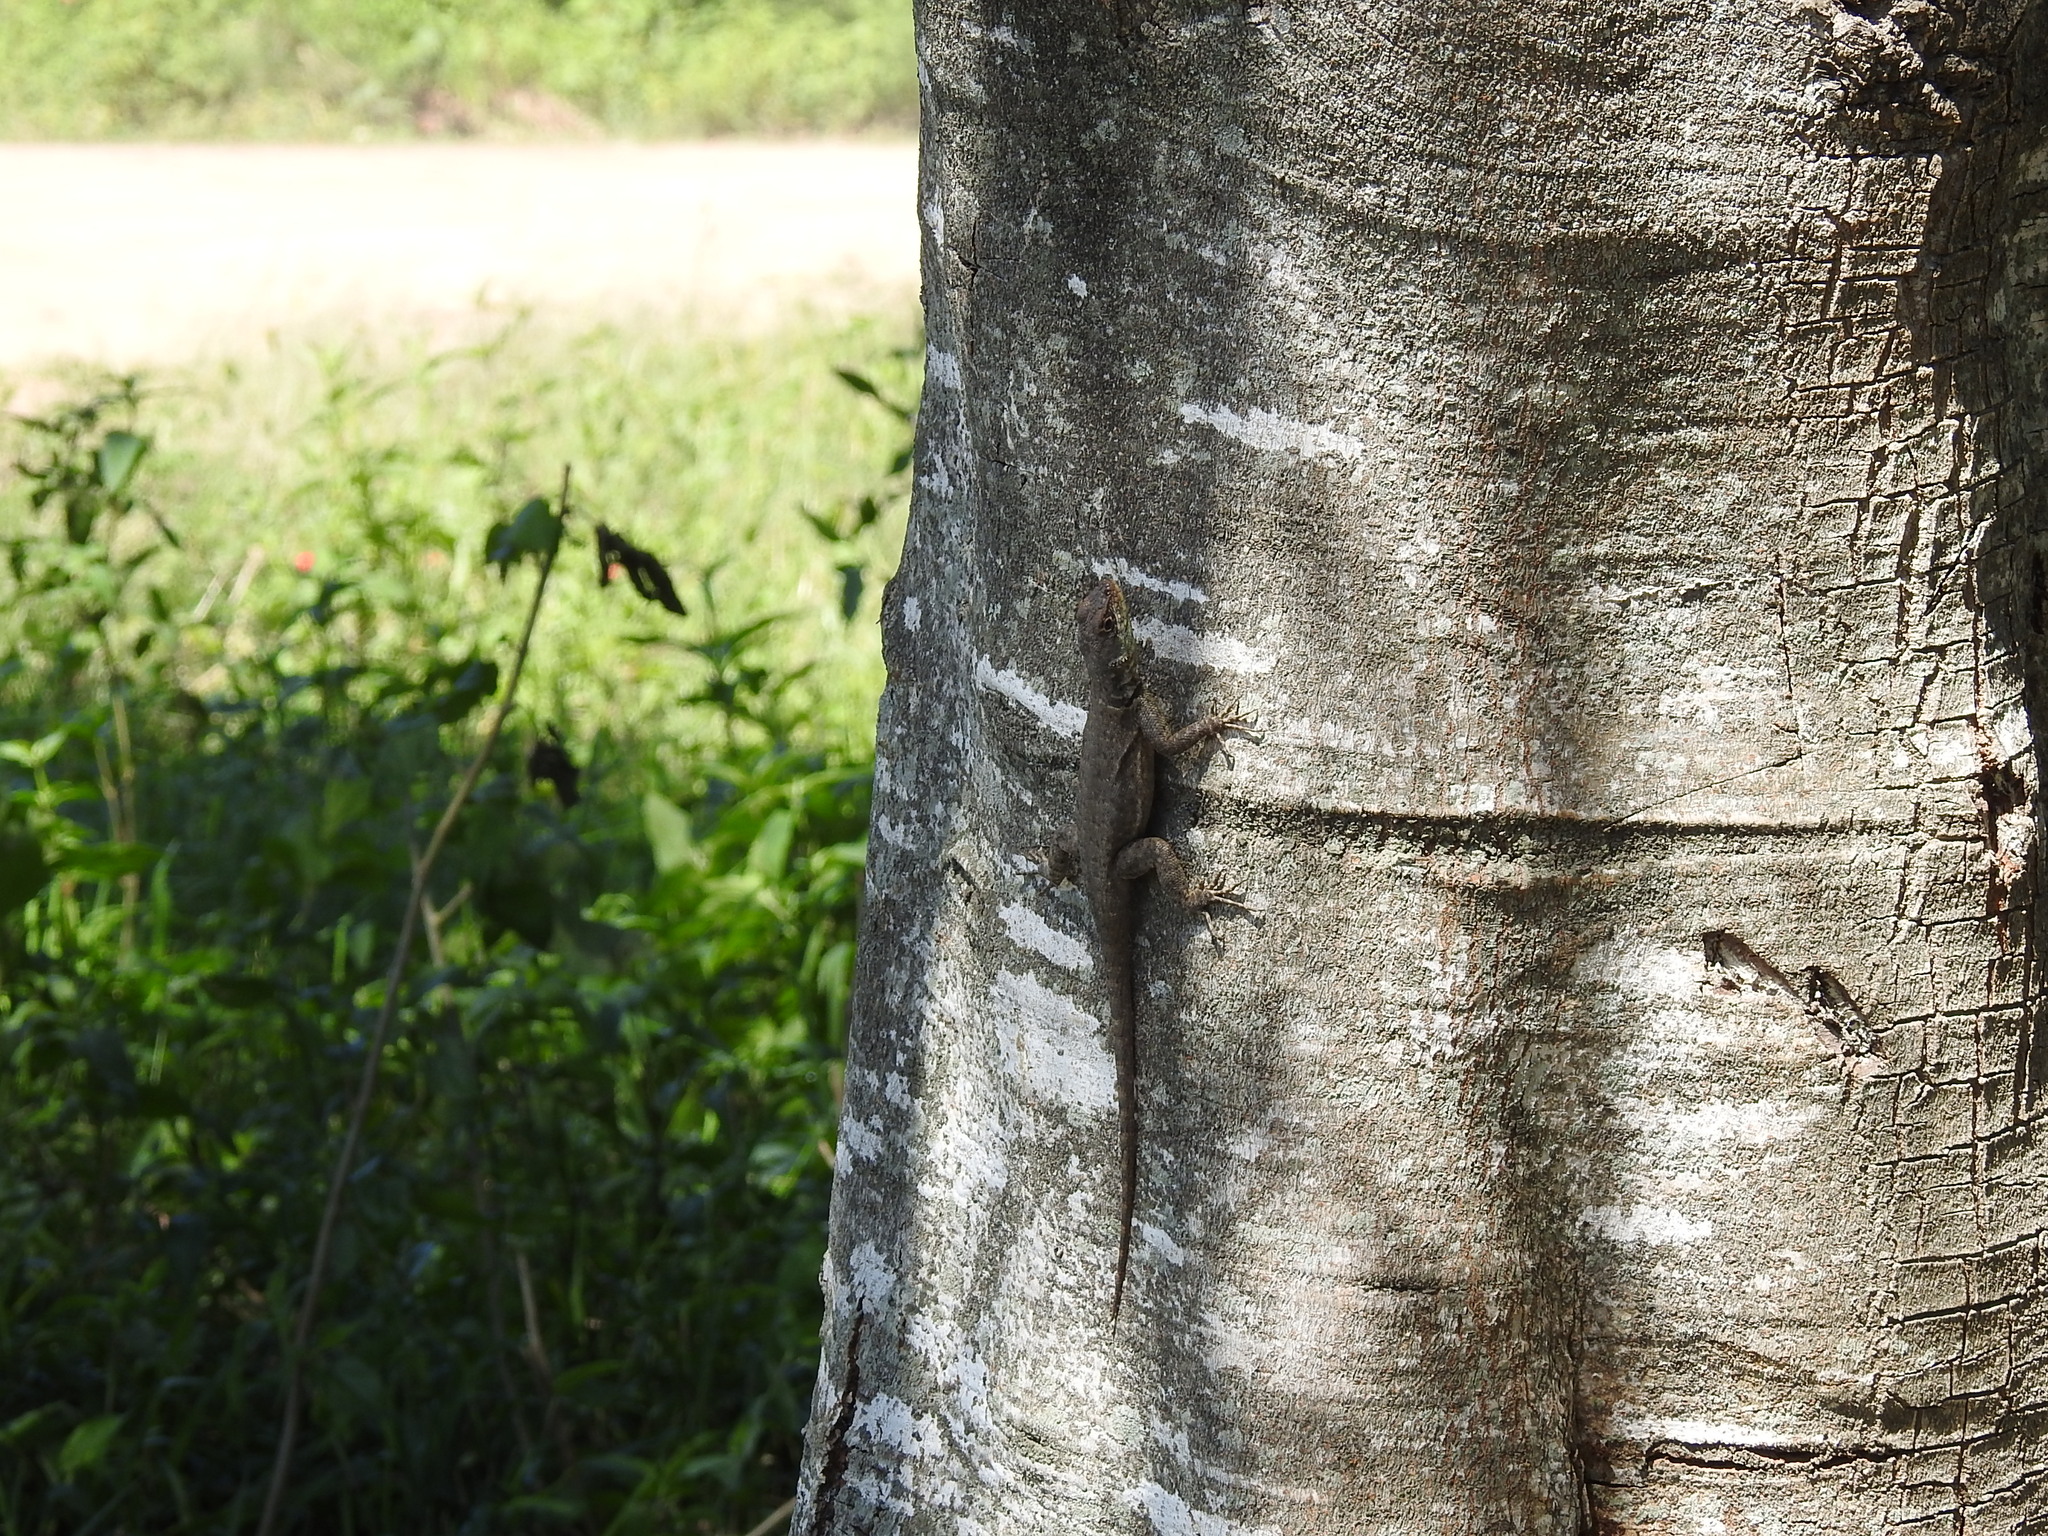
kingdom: Animalia
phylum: Chordata
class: Squamata
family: Tropiduridae
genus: Tropidurus
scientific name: Tropidurus catalanensis
